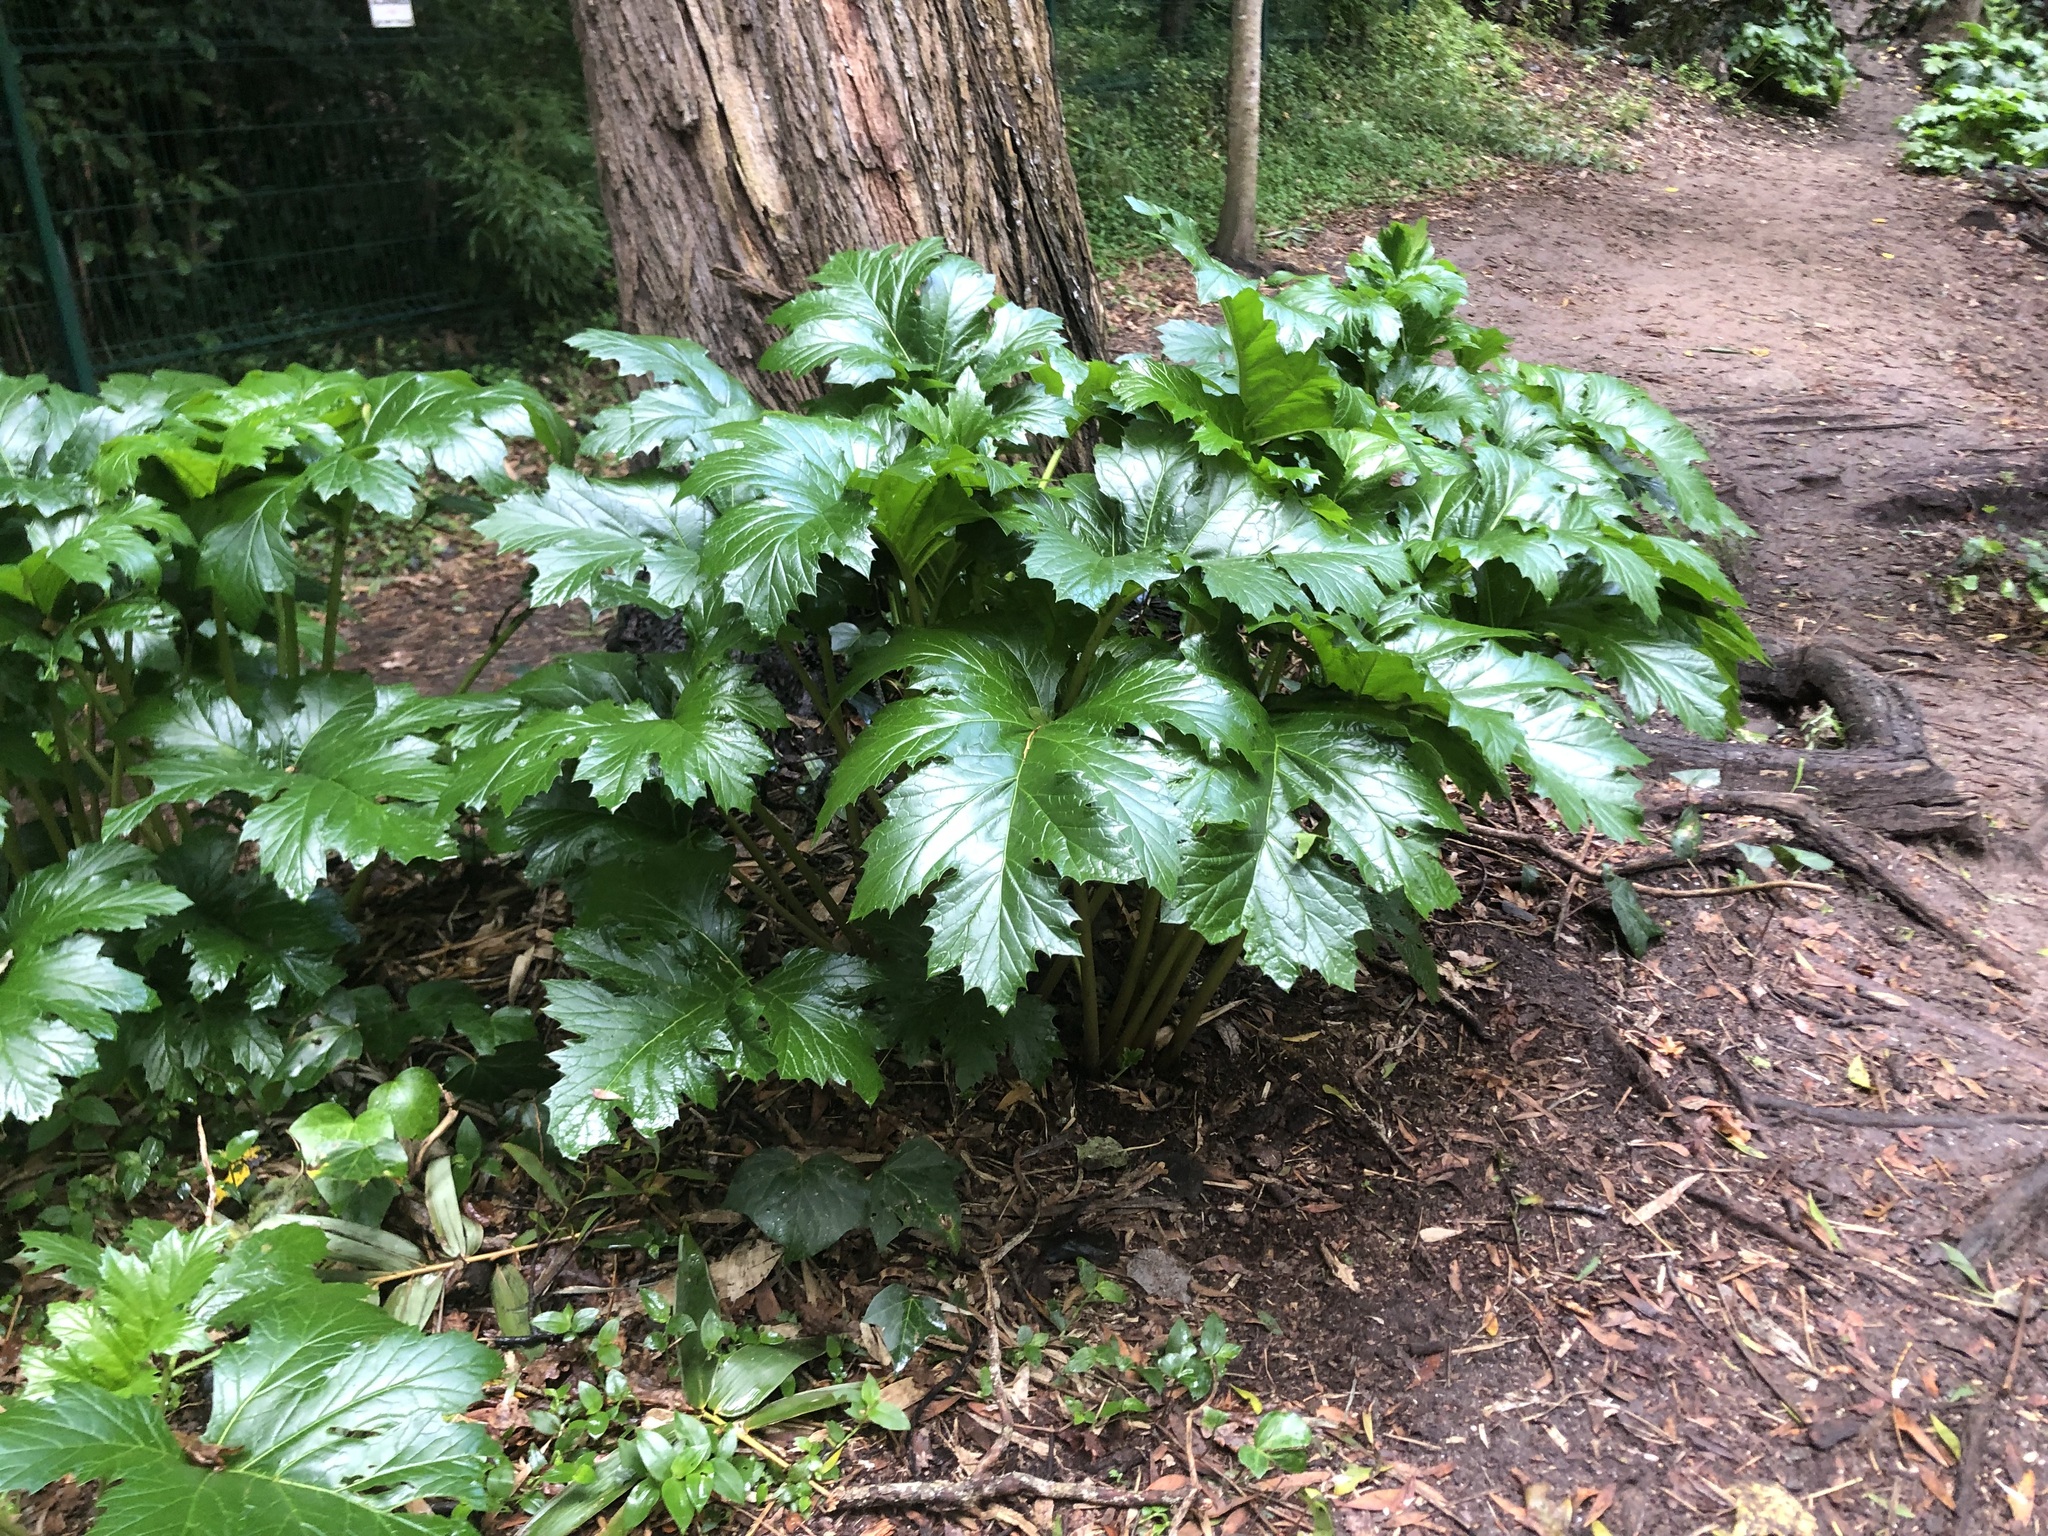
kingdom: Plantae
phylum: Tracheophyta
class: Magnoliopsida
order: Lamiales
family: Acanthaceae
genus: Acanthus
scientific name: Acanthus mollis
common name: Bear's-breech
